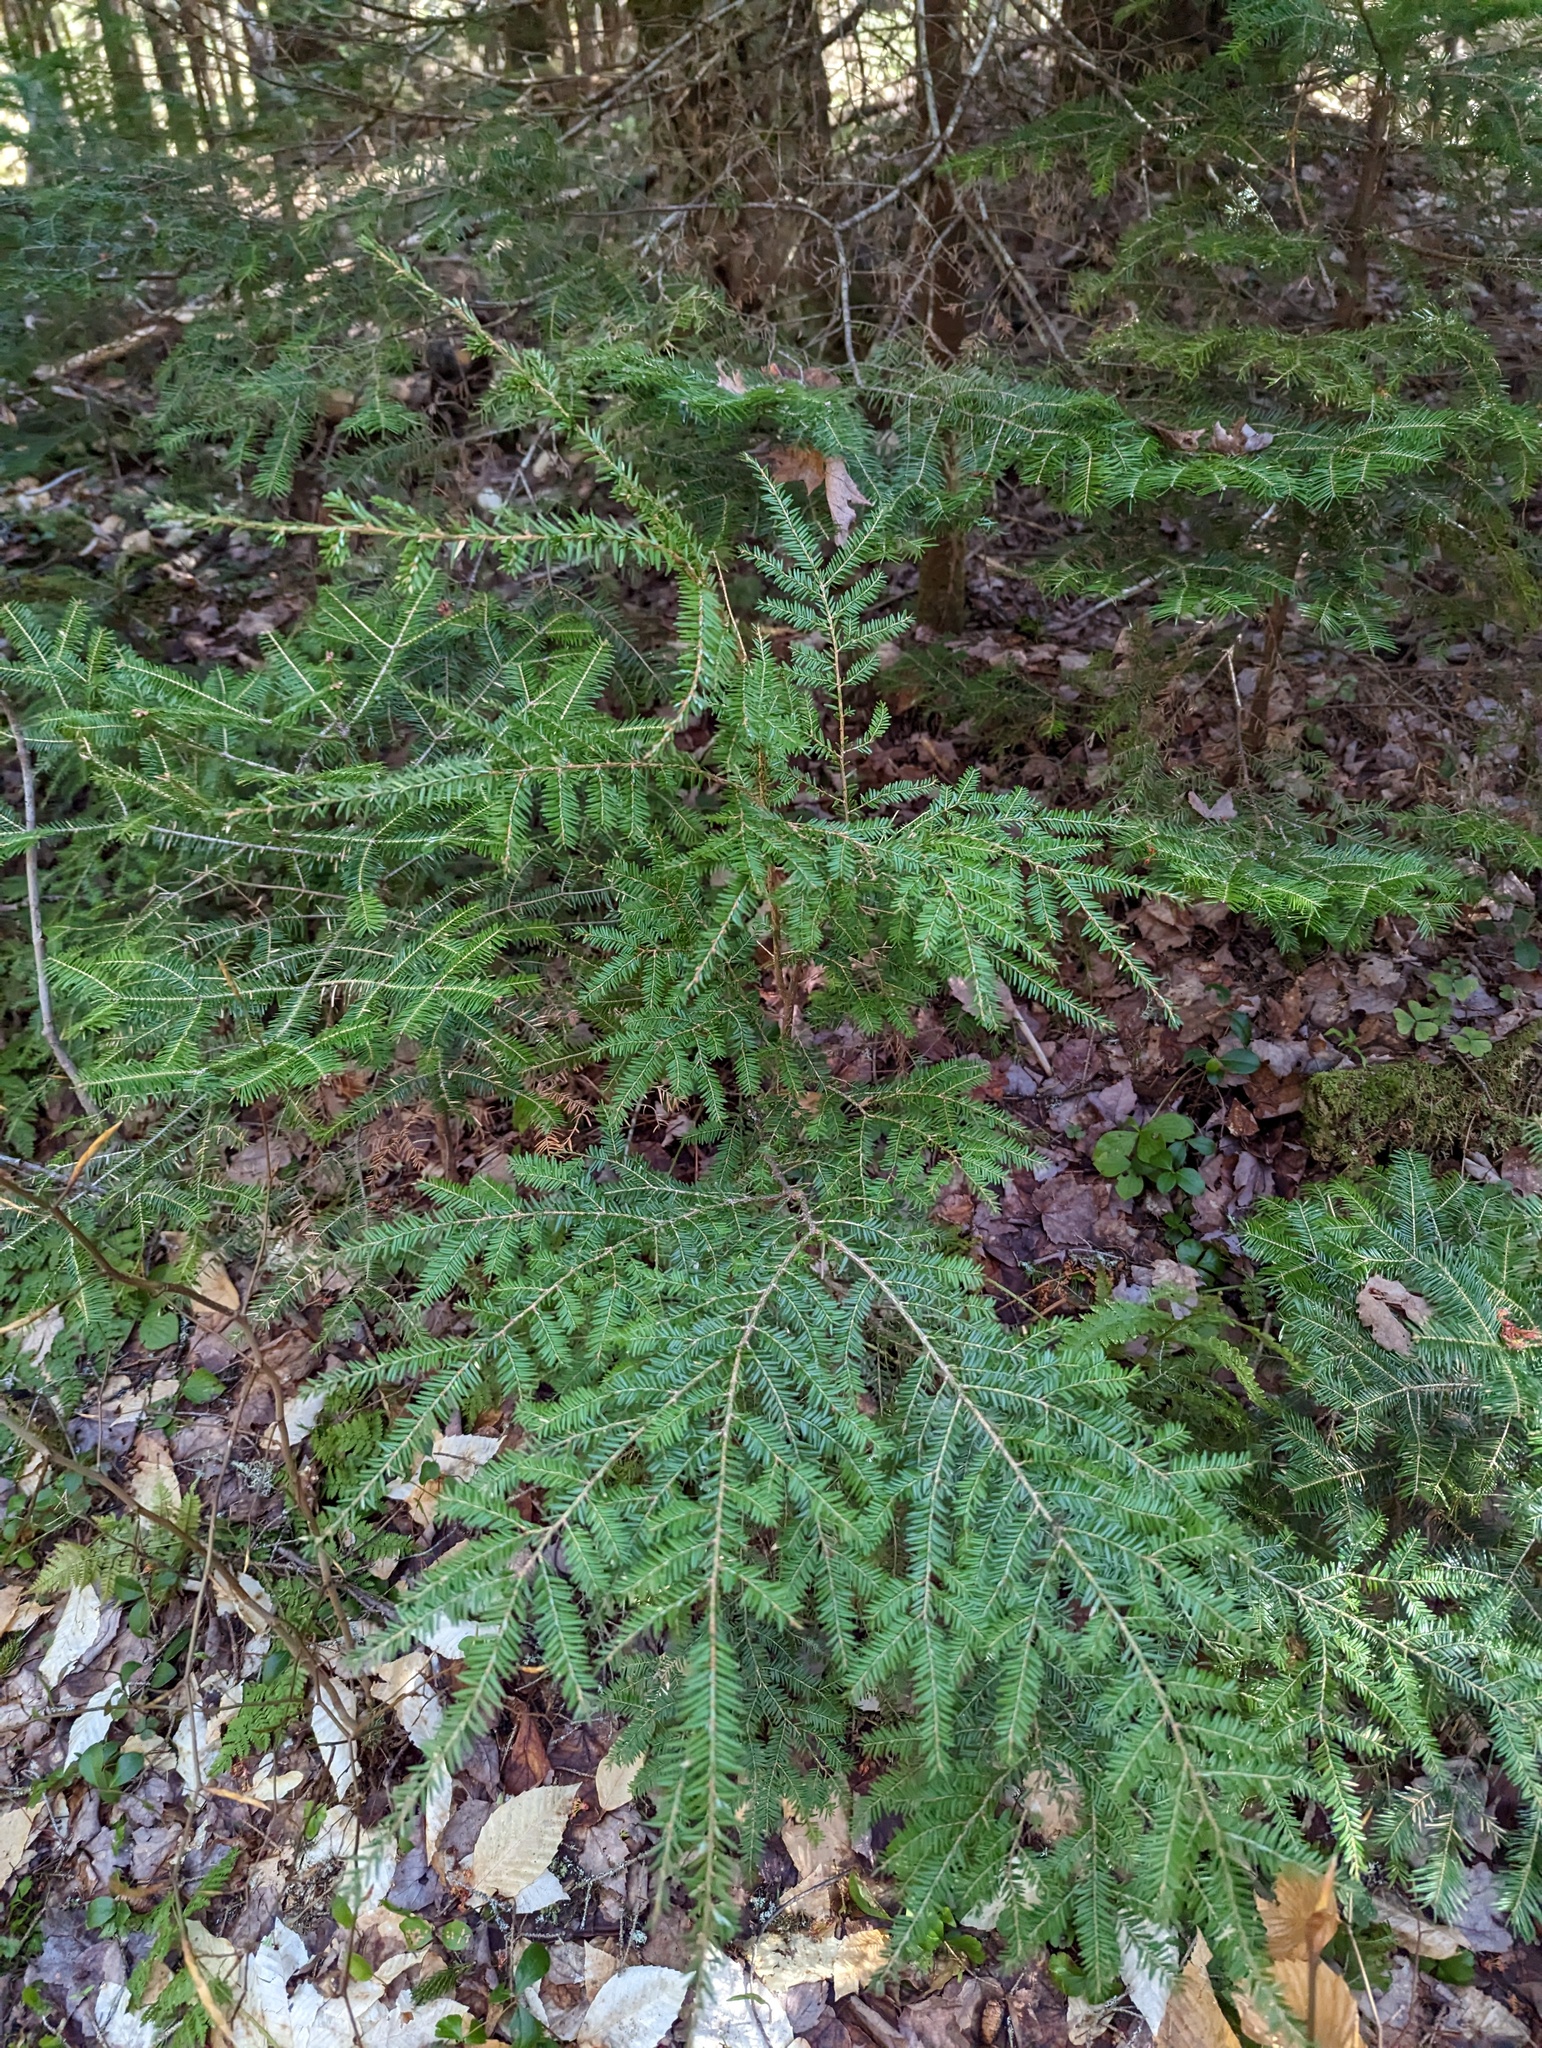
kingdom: Plantae
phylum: Tracheophyta
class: Pinopsida
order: Pinales
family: Pinaceae
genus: Tsuga
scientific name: Tsuga canadensis
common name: Eastern hemlock
